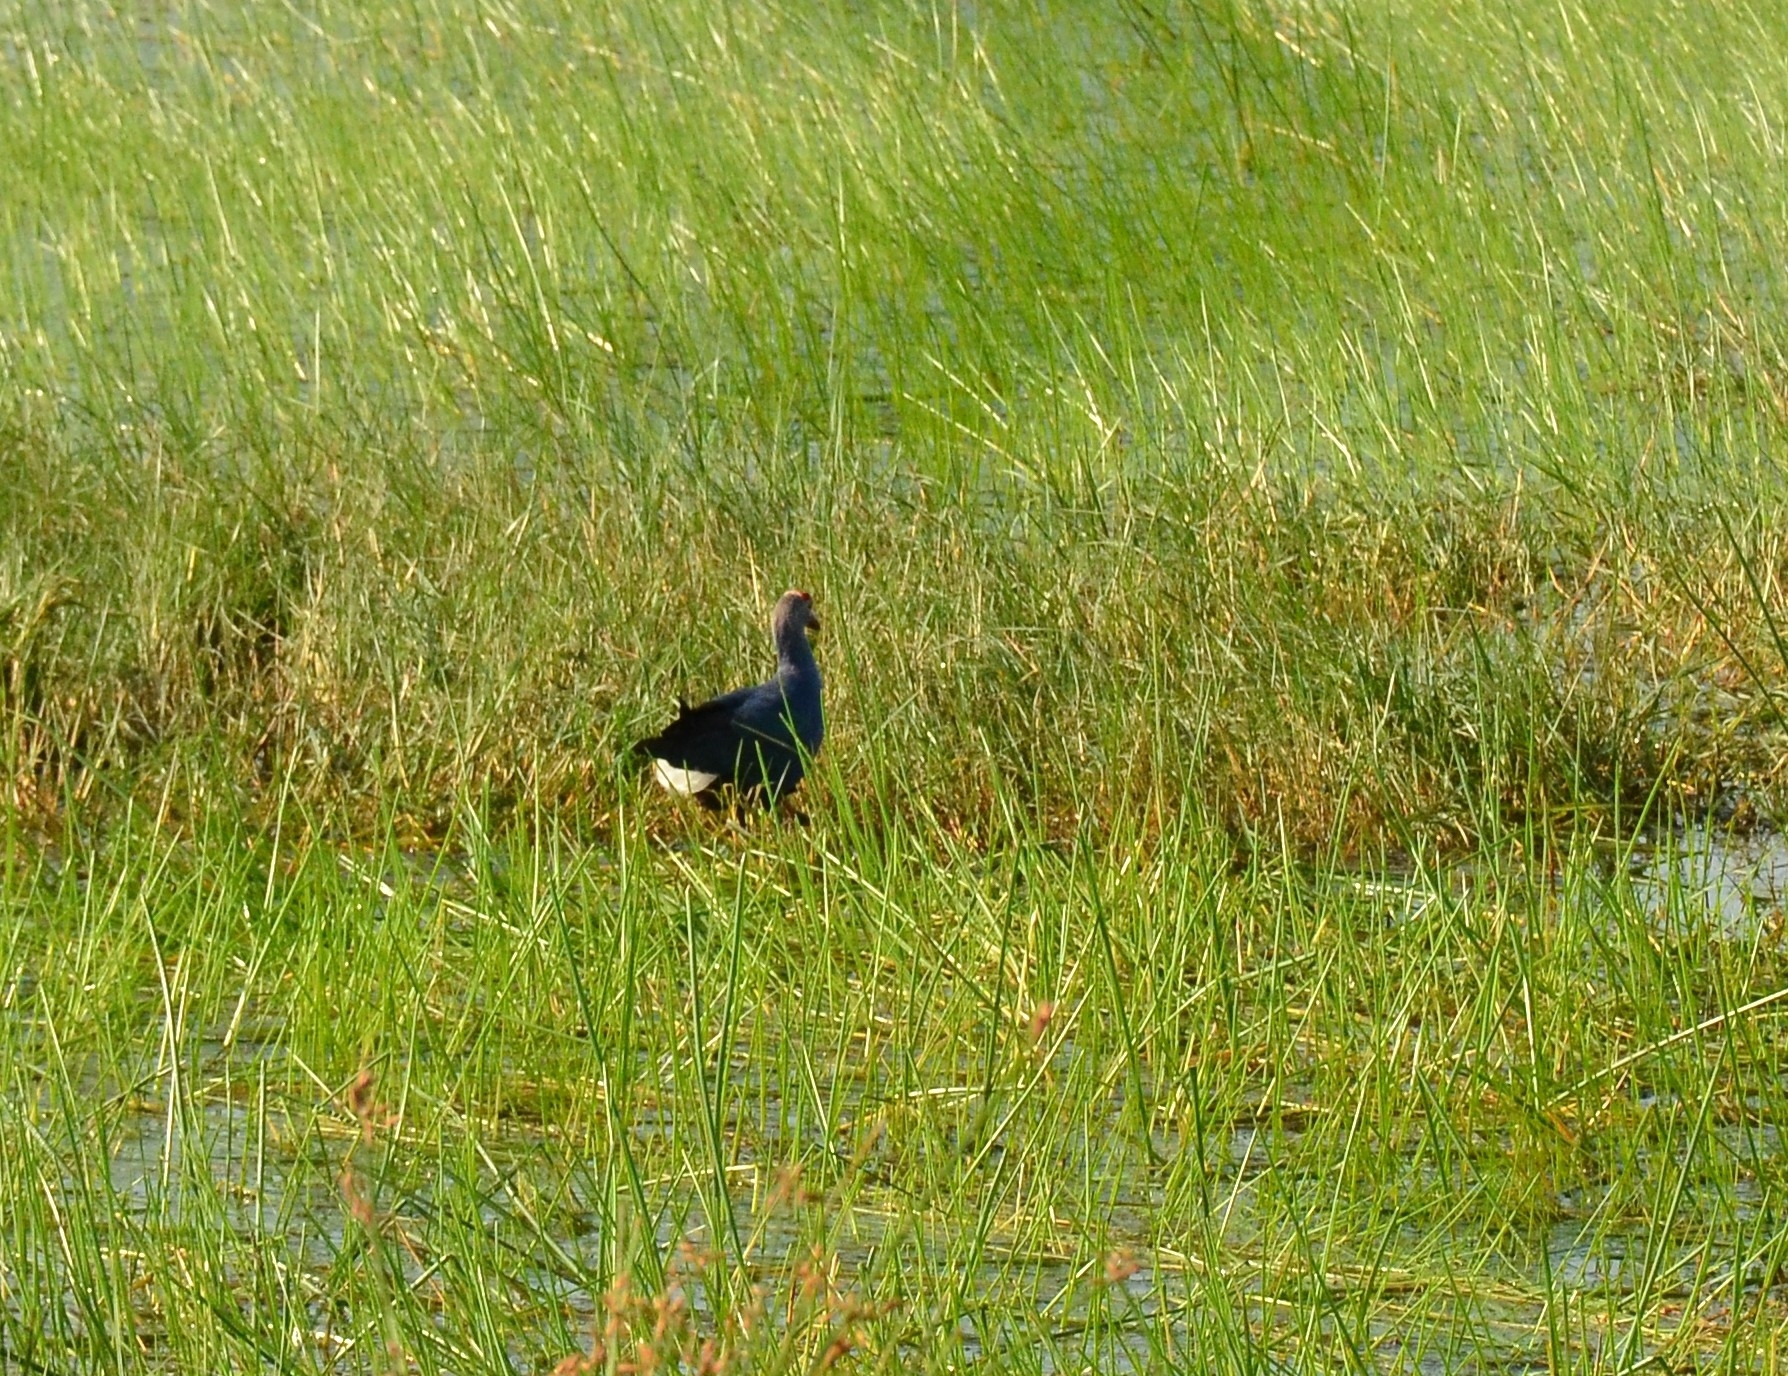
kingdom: Animalia
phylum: Chordata
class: Aves
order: Gruiformes
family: Rallidae
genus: Porphyrio
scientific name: Porphyrio porphyrio
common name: Purple swamphen
